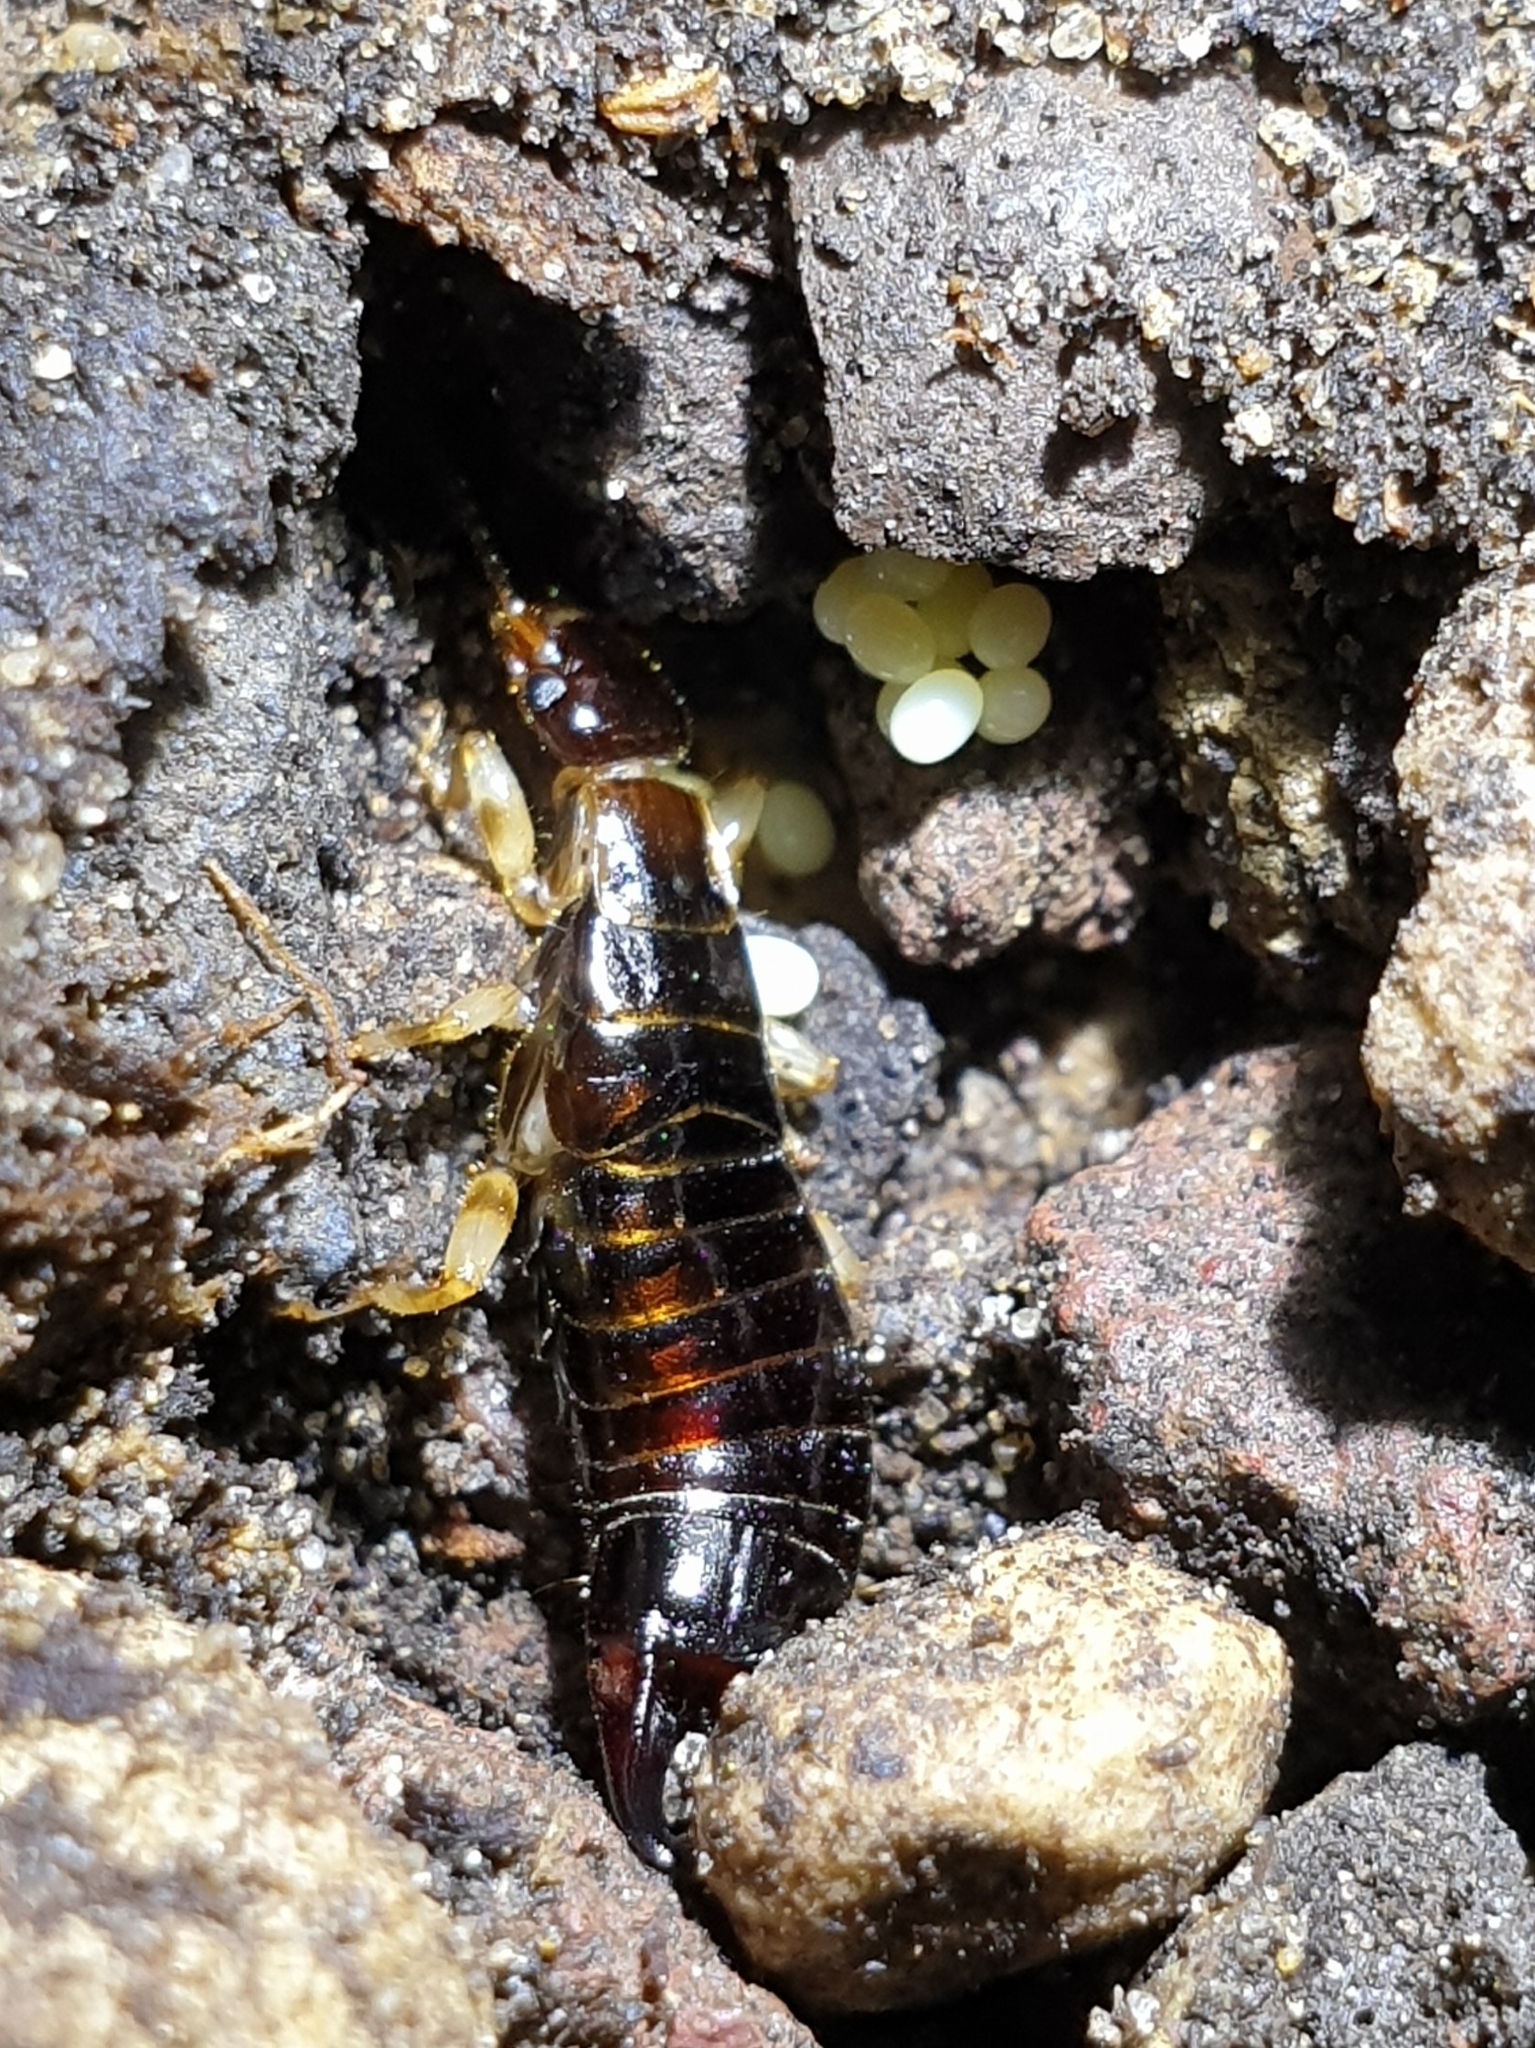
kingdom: Animalia
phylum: Arthropoda
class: Insecta
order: Dermaptera
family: Anisolabididae
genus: Euborellia
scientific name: Euborellia annulipes
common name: Ringlegged earwig
